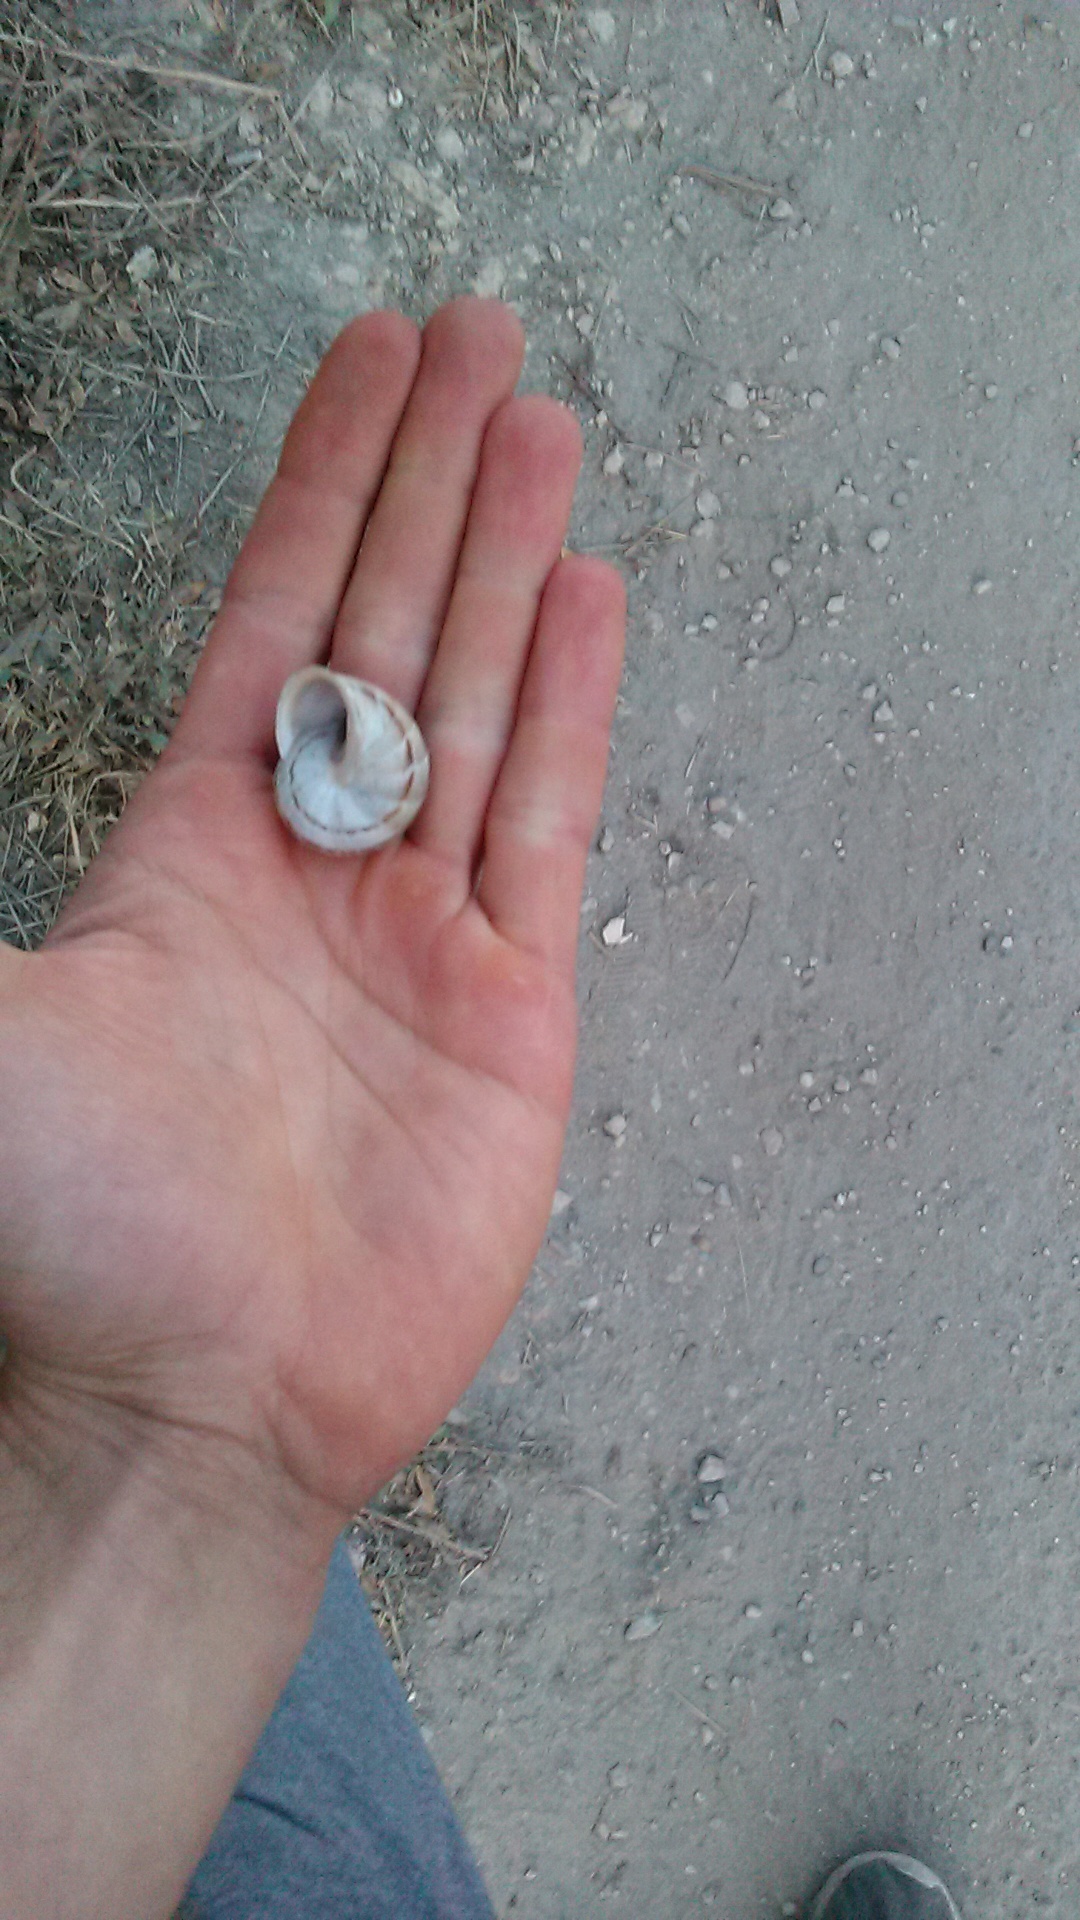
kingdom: Animalia
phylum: Mollusca
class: Gastropoda
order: Stylommatophora
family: Helicidae
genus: Eobania
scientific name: Eobania vermiculata
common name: Chocolateband snail
